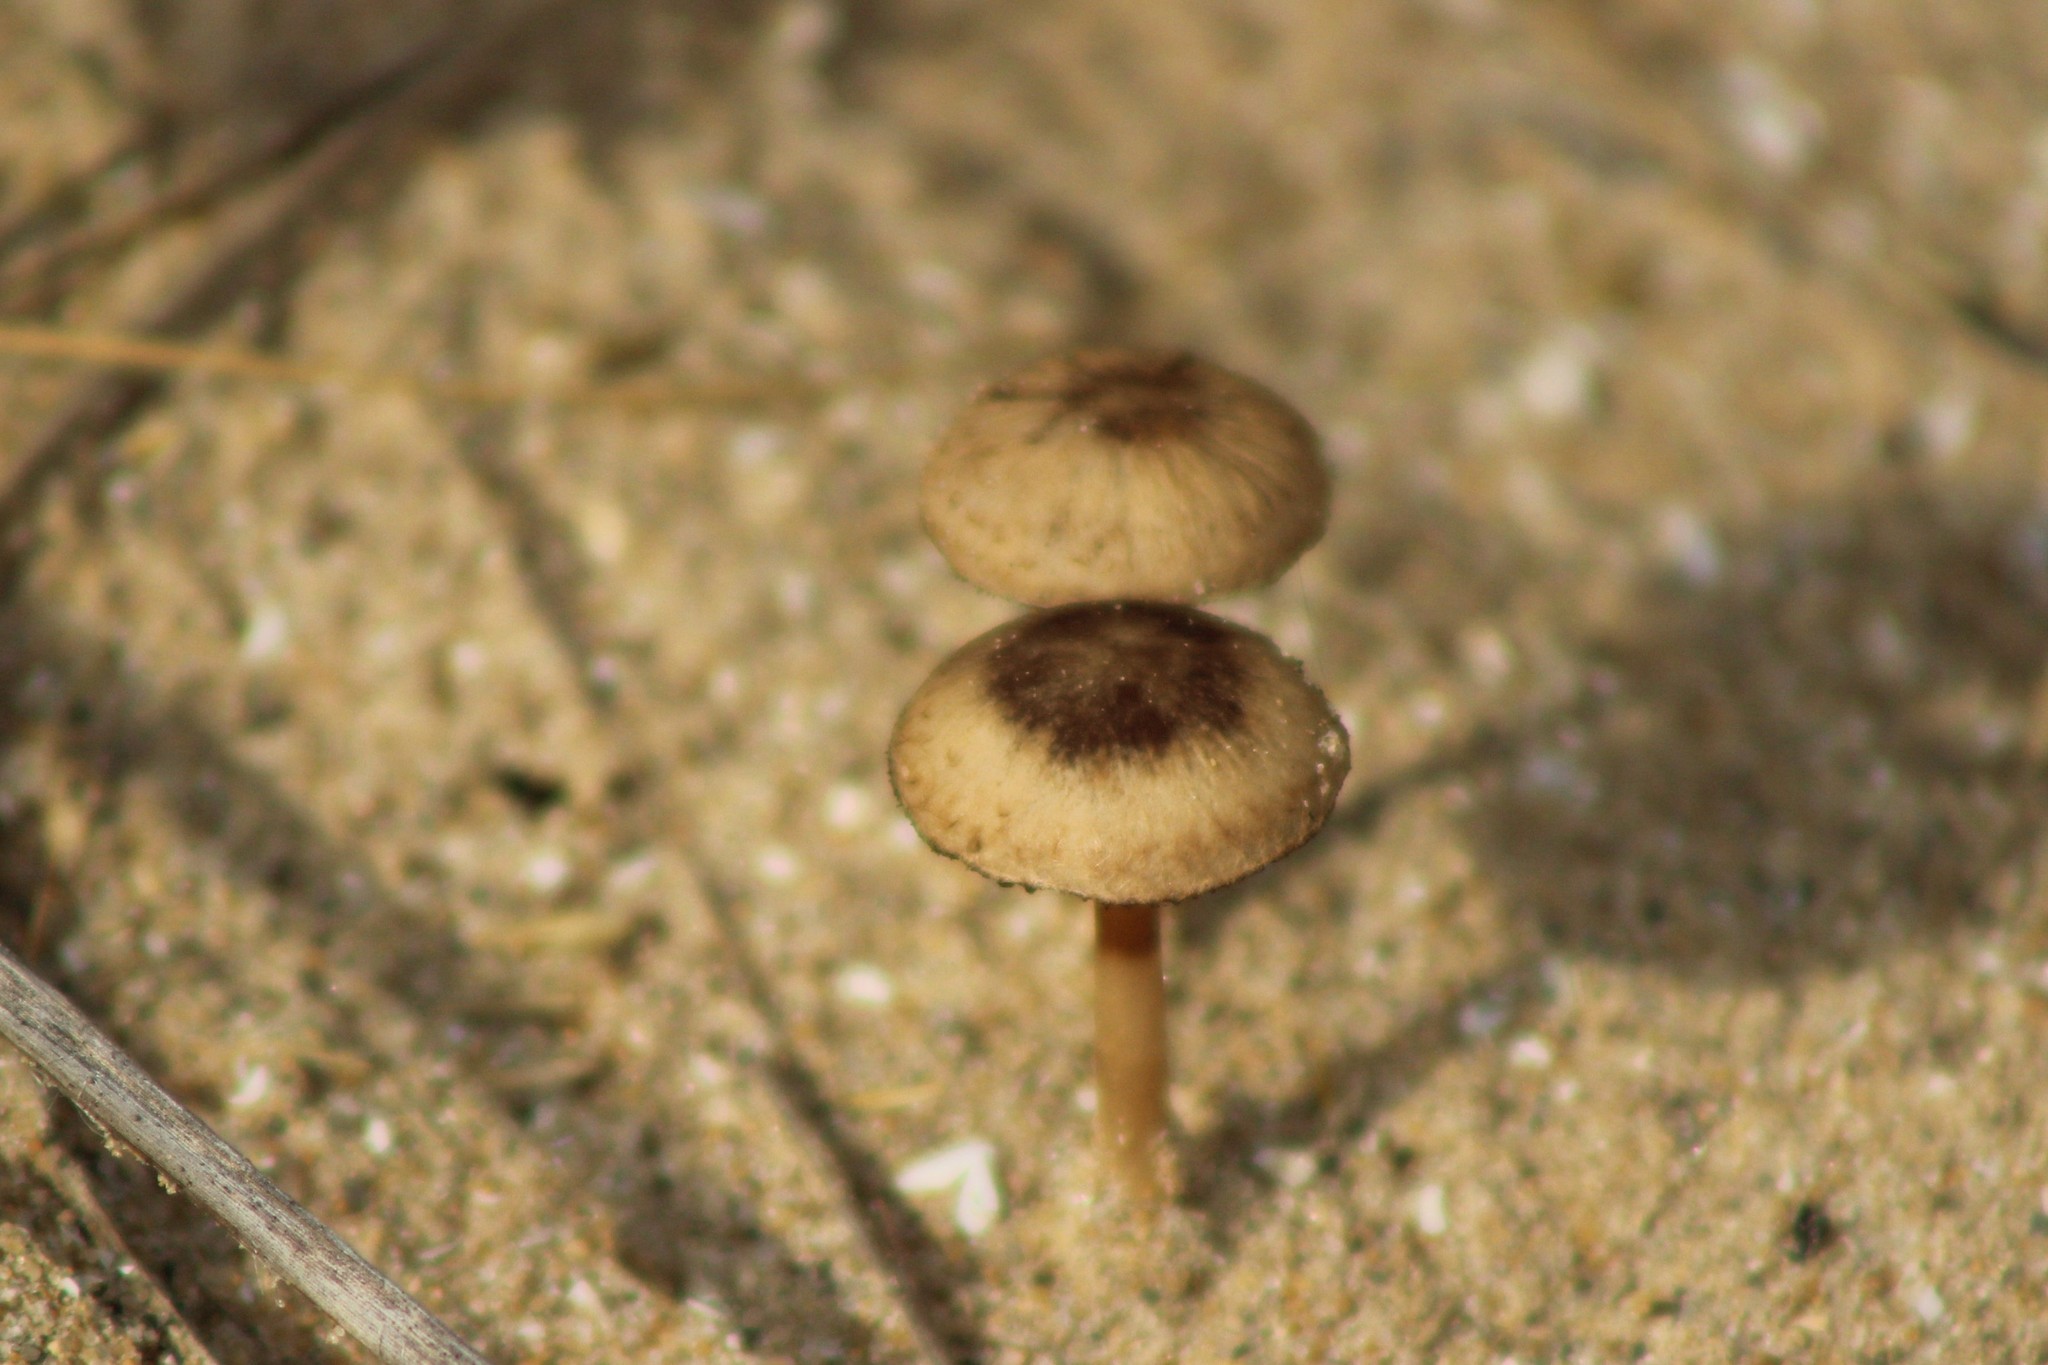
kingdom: Fungi
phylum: Basidiomycota
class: Agaricomycetes
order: Agaricales
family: Psathyrellaceae
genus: Psathyrella
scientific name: Psathyrella ammophila
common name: Dune brittlestem
